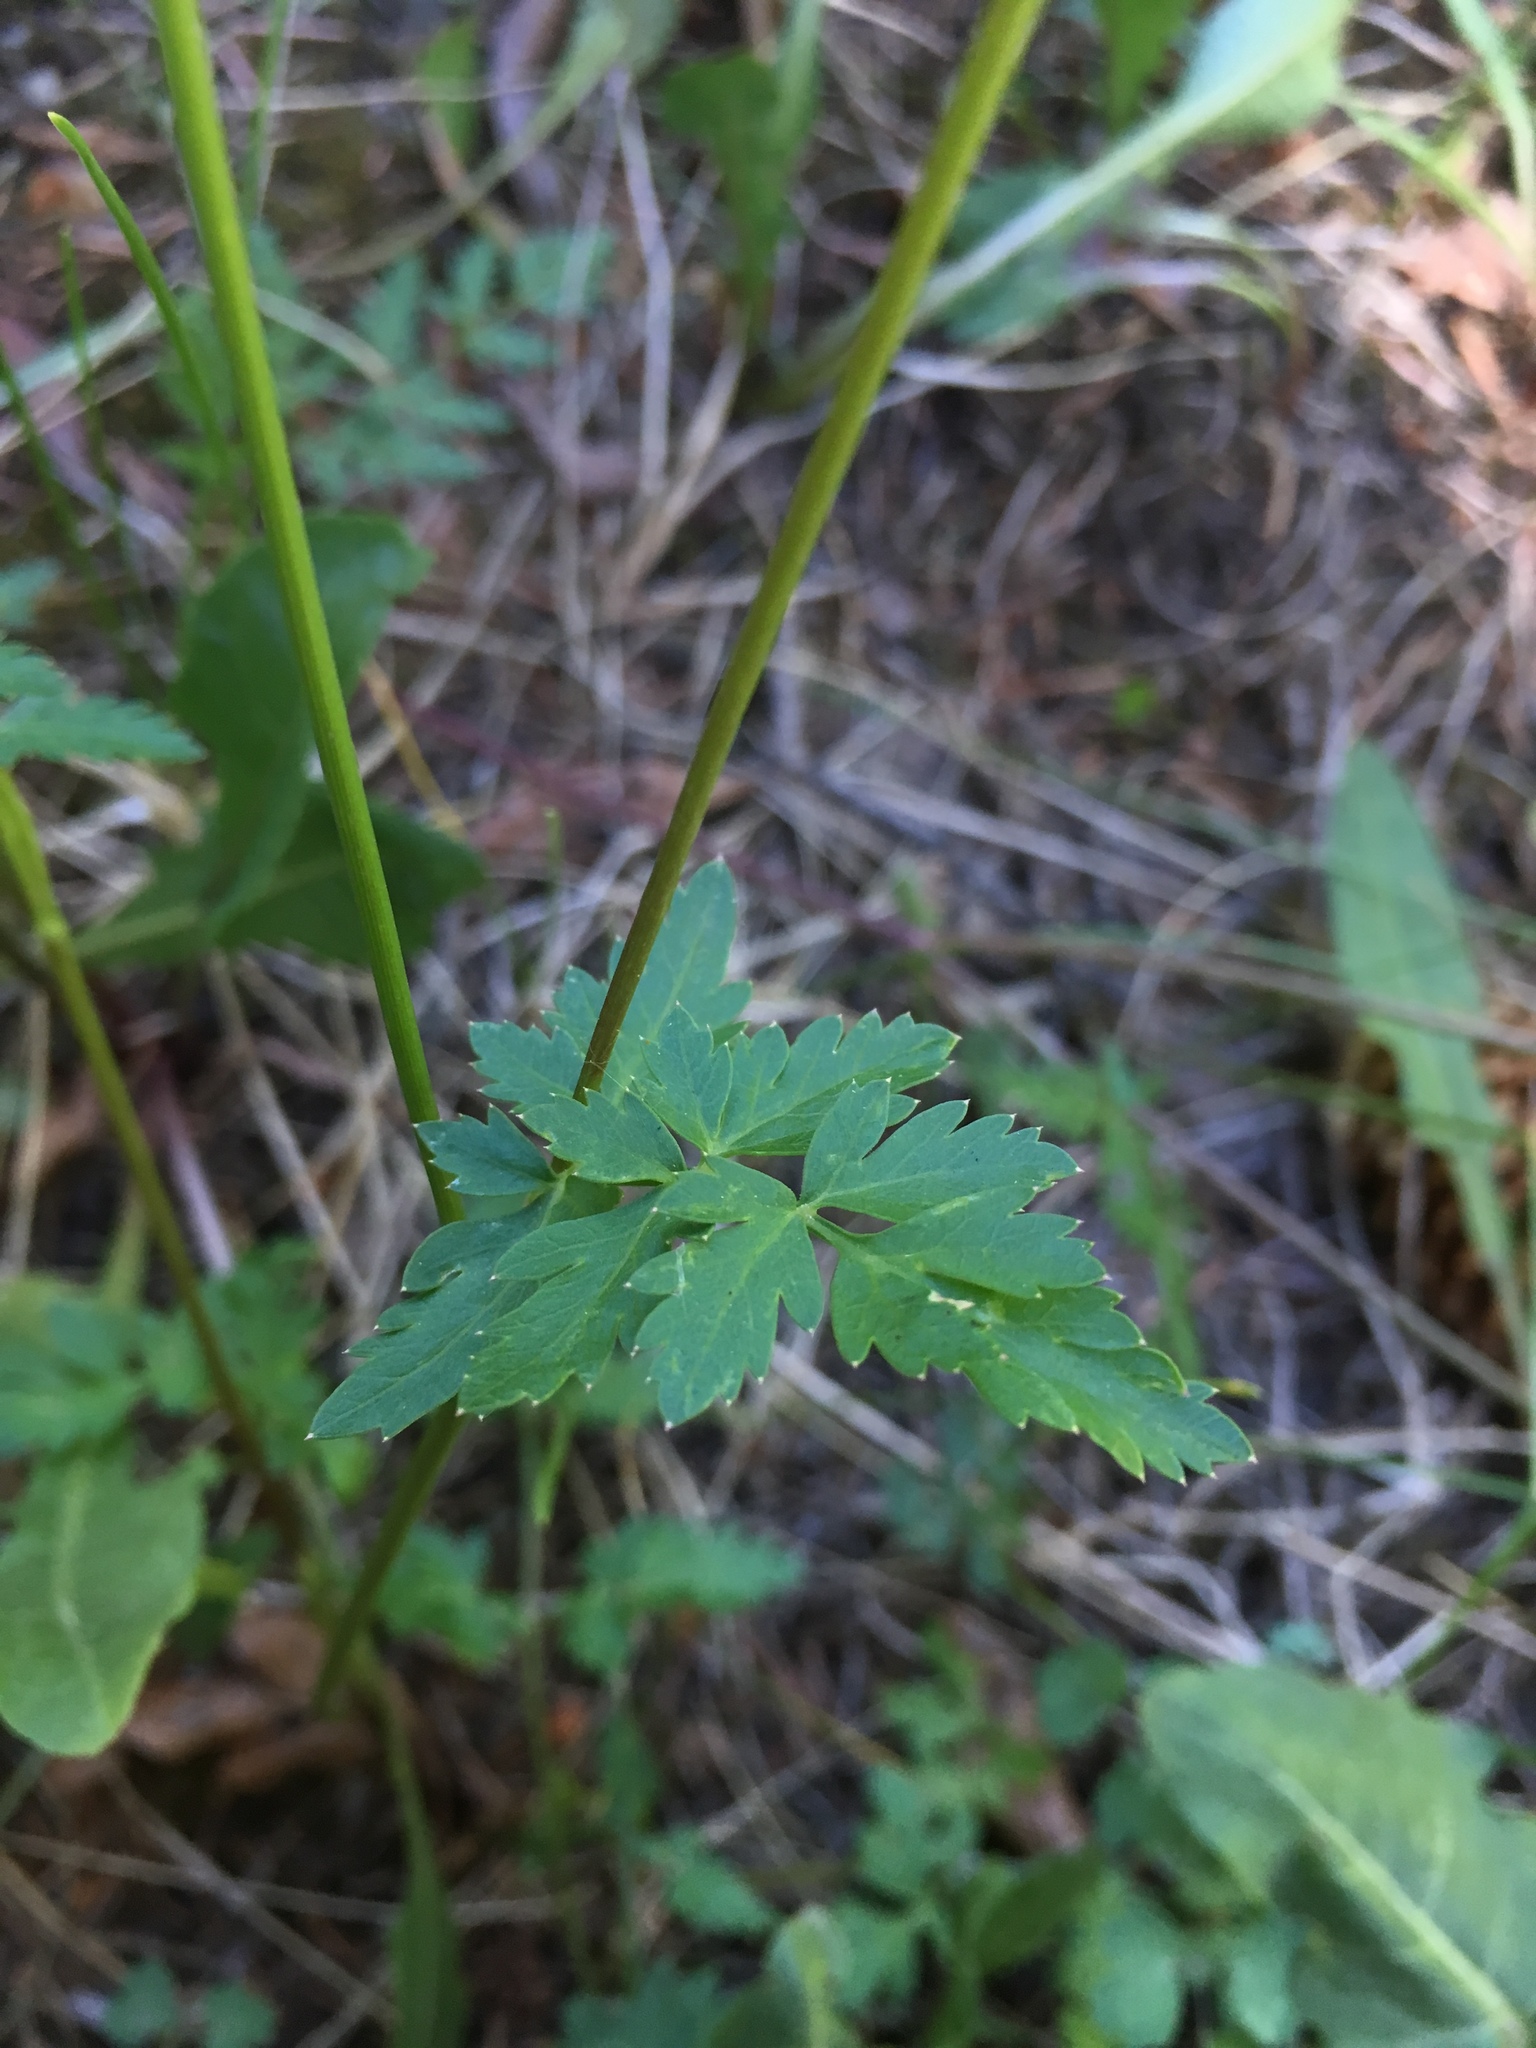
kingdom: Plantae
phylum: Tracheophyta
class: Magnoliopsida
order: Apiales
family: Apiaceae
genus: Cymopterus
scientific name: Cymopterus lemmonii
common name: Lemmon's spring-parsley
